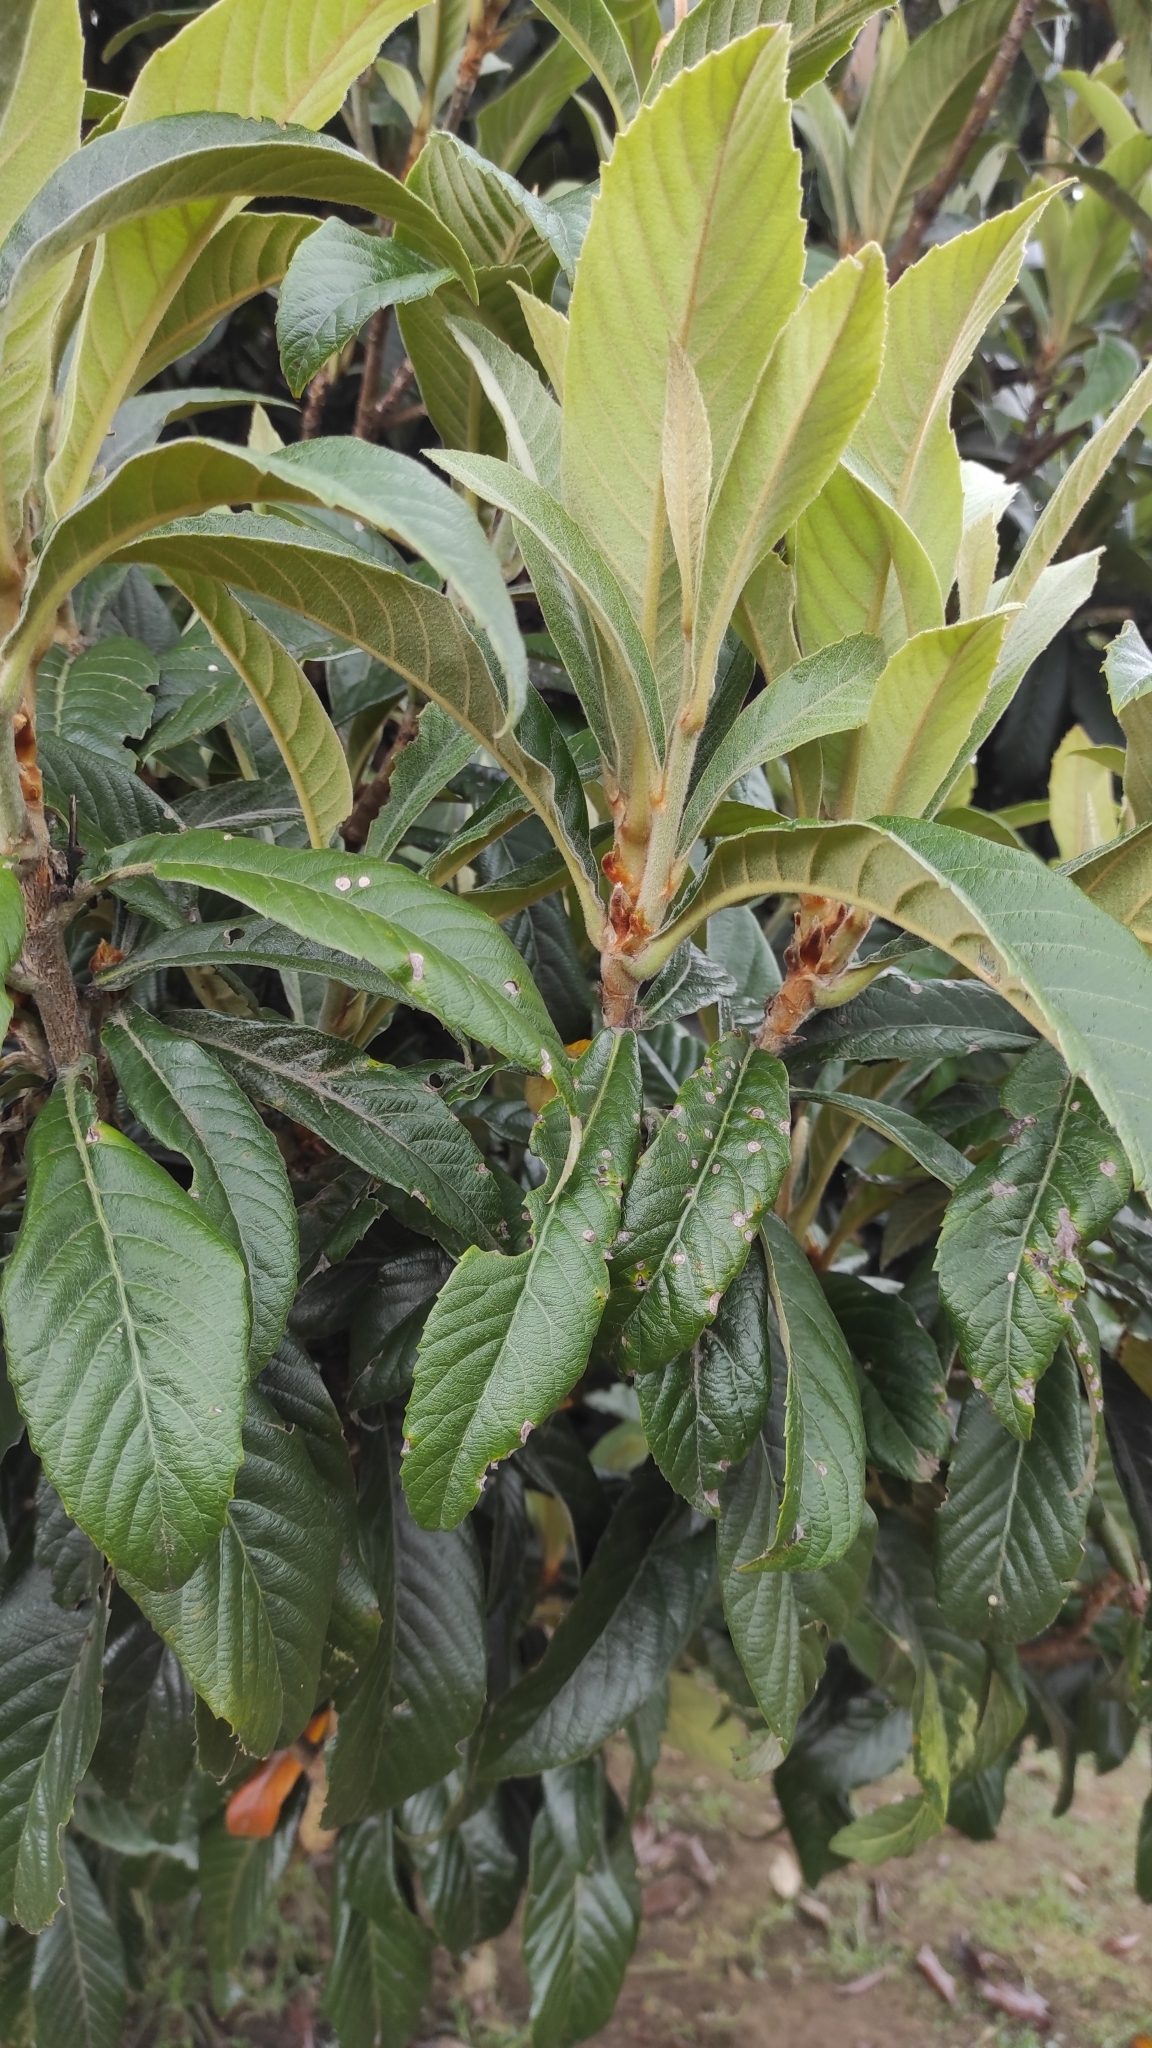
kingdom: Plantae
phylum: Tracheophyta
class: Magnoliopsida
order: Rosales
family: Rosaceae
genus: Rhaphiolepis
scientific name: Rhaphiolepis bibas
